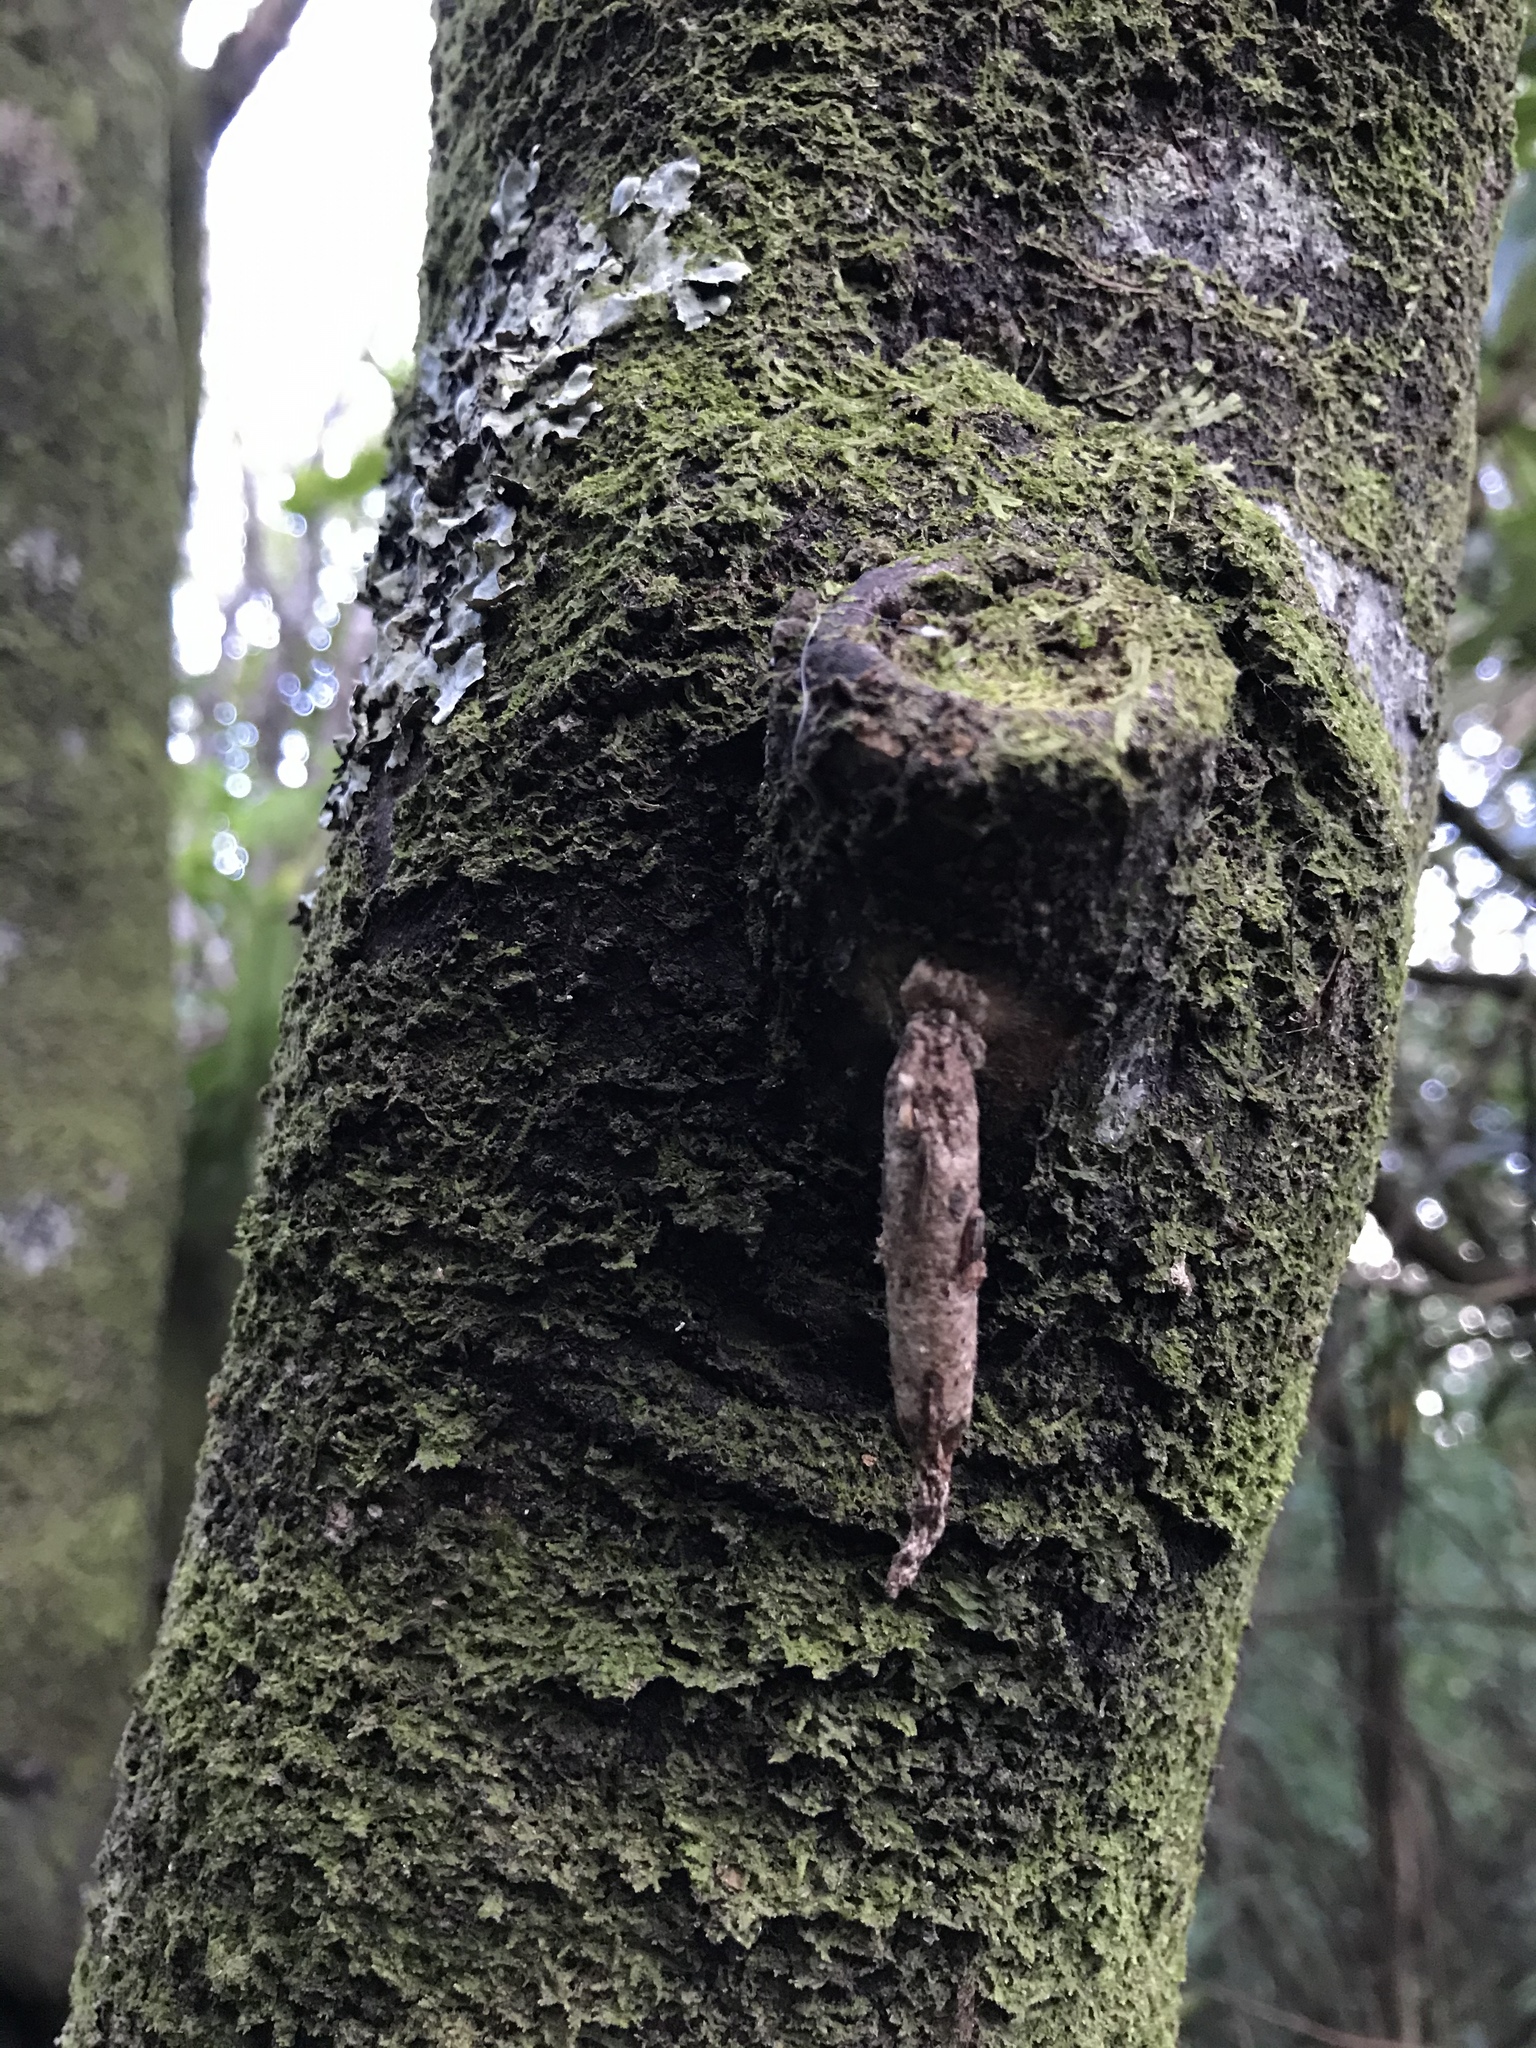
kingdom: Animalia
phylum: Arthropoda
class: Insecta
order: Lepidoptera
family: Psychidae
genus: Liothula
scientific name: Liothula omnivora
